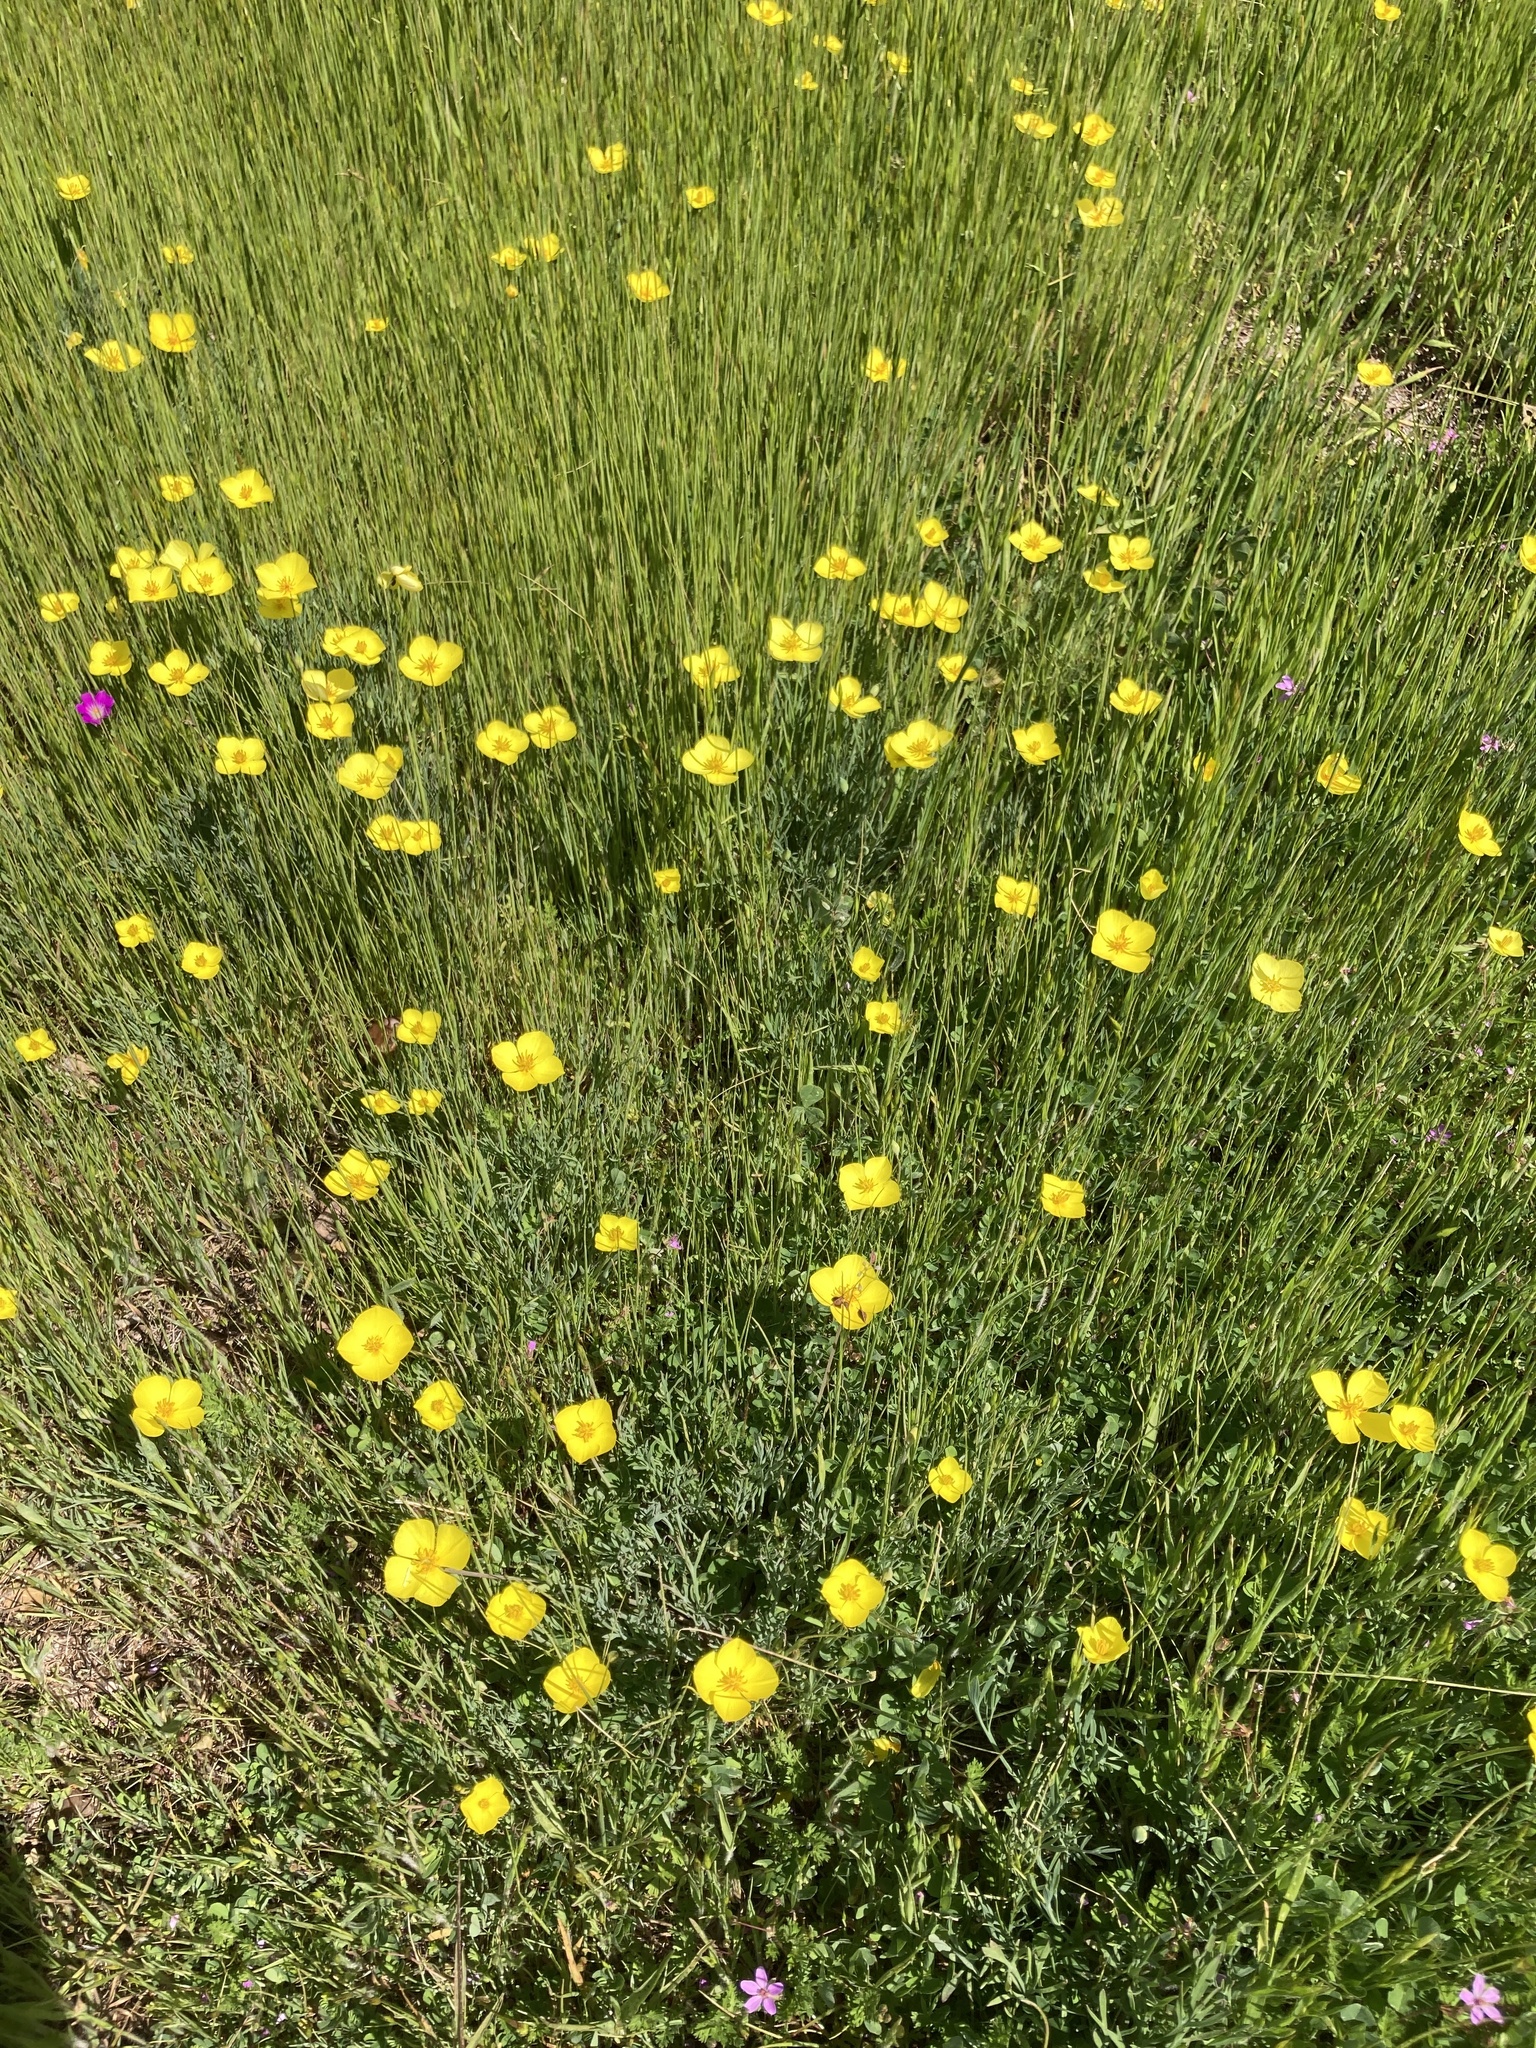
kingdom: Plantae
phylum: Tracheophyta
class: Magnoliopsida
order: Ranunculales
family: Papaveraceae
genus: Eschscholzia
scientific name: Eschscholzia lobbii
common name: Frying-pans
